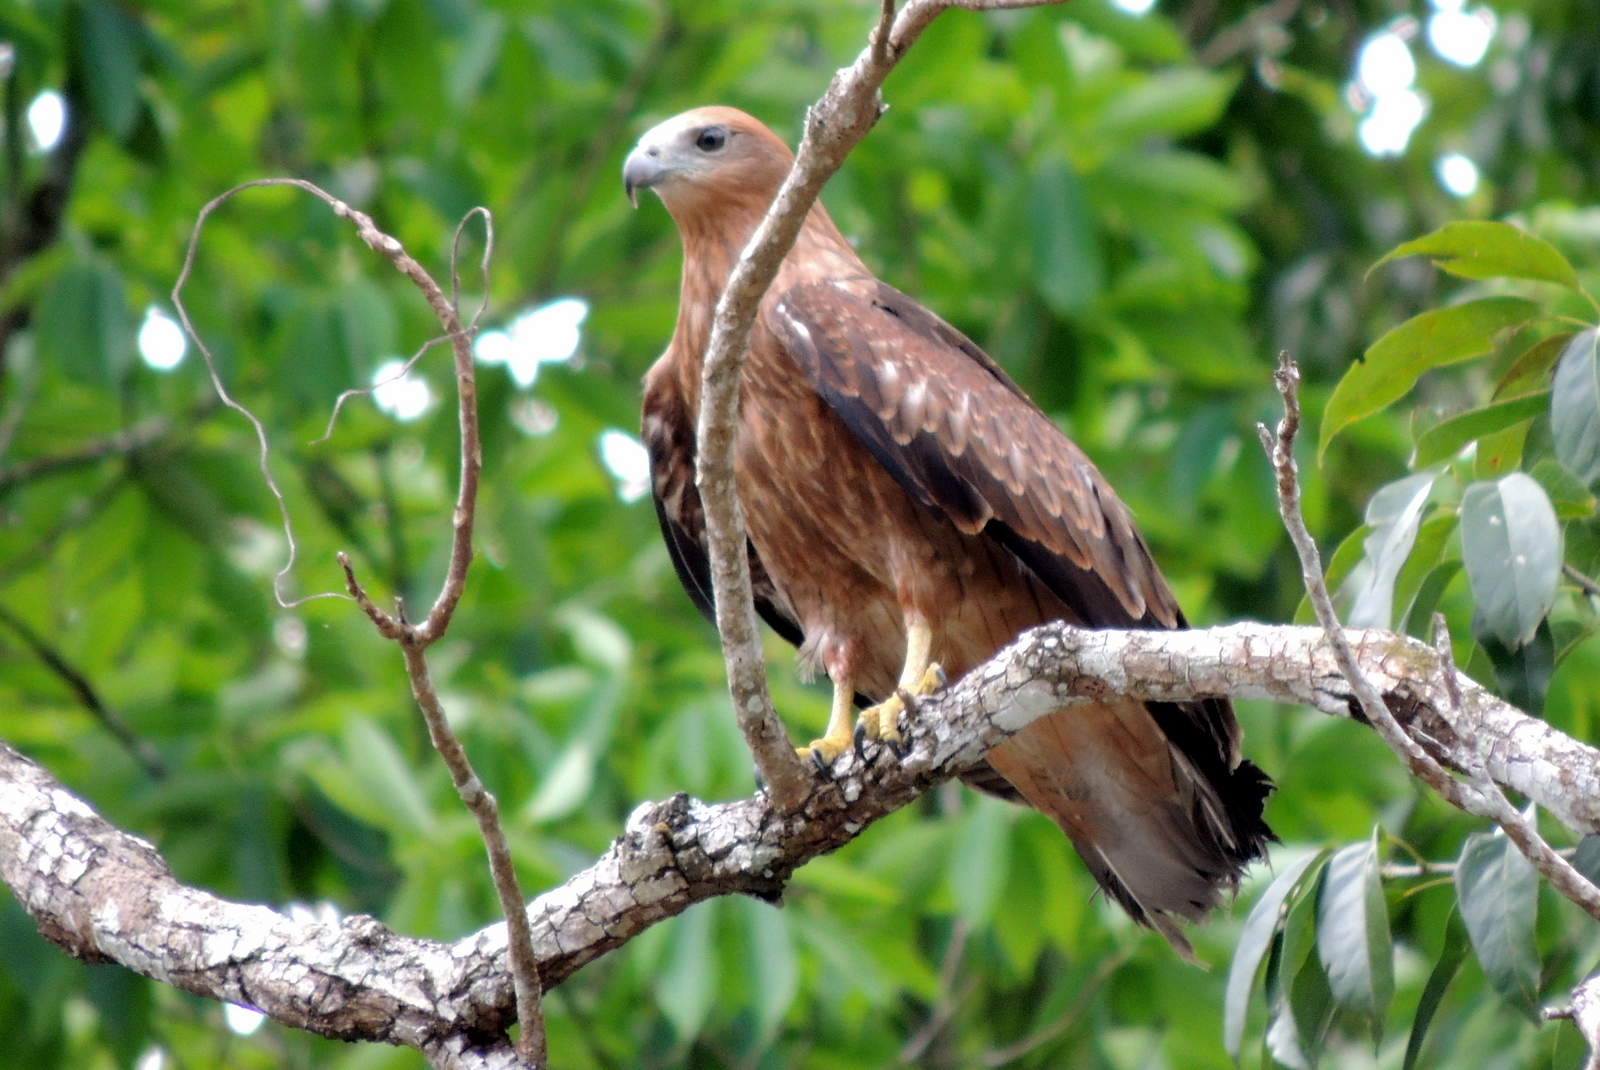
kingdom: Animalia
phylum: Chordata
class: Aves
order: Accipitriformes
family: Accipitridae
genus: Haliastur
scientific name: Haliastur indus
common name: Brahminy kite
